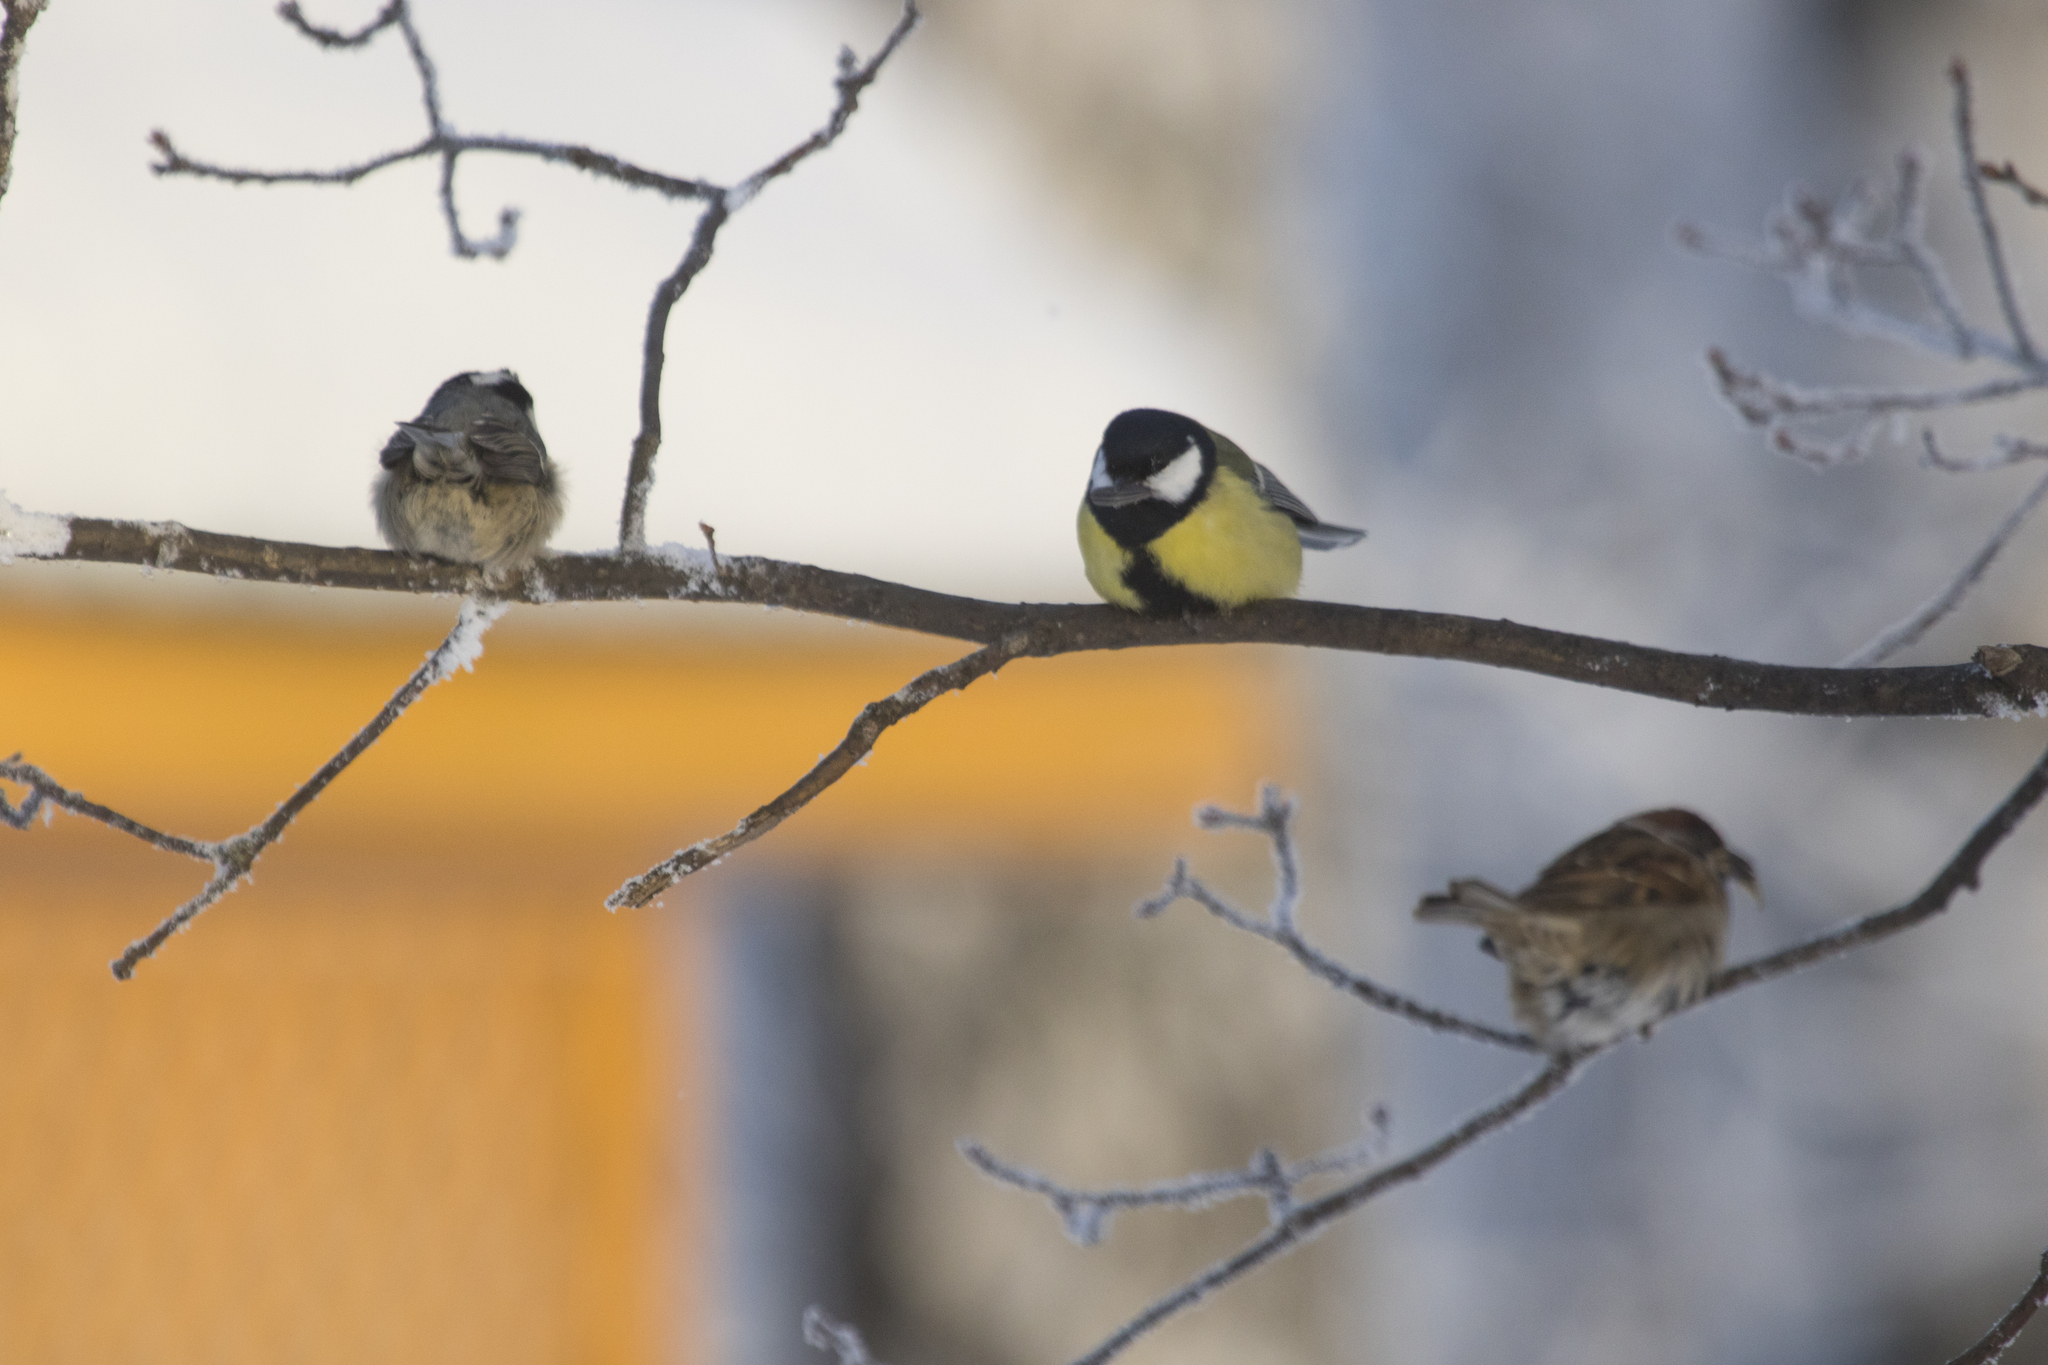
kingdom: Animalia
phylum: Chordata
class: Aves
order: Passeriformes
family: Paridae
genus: Parus
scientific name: Parus major
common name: Great tit
